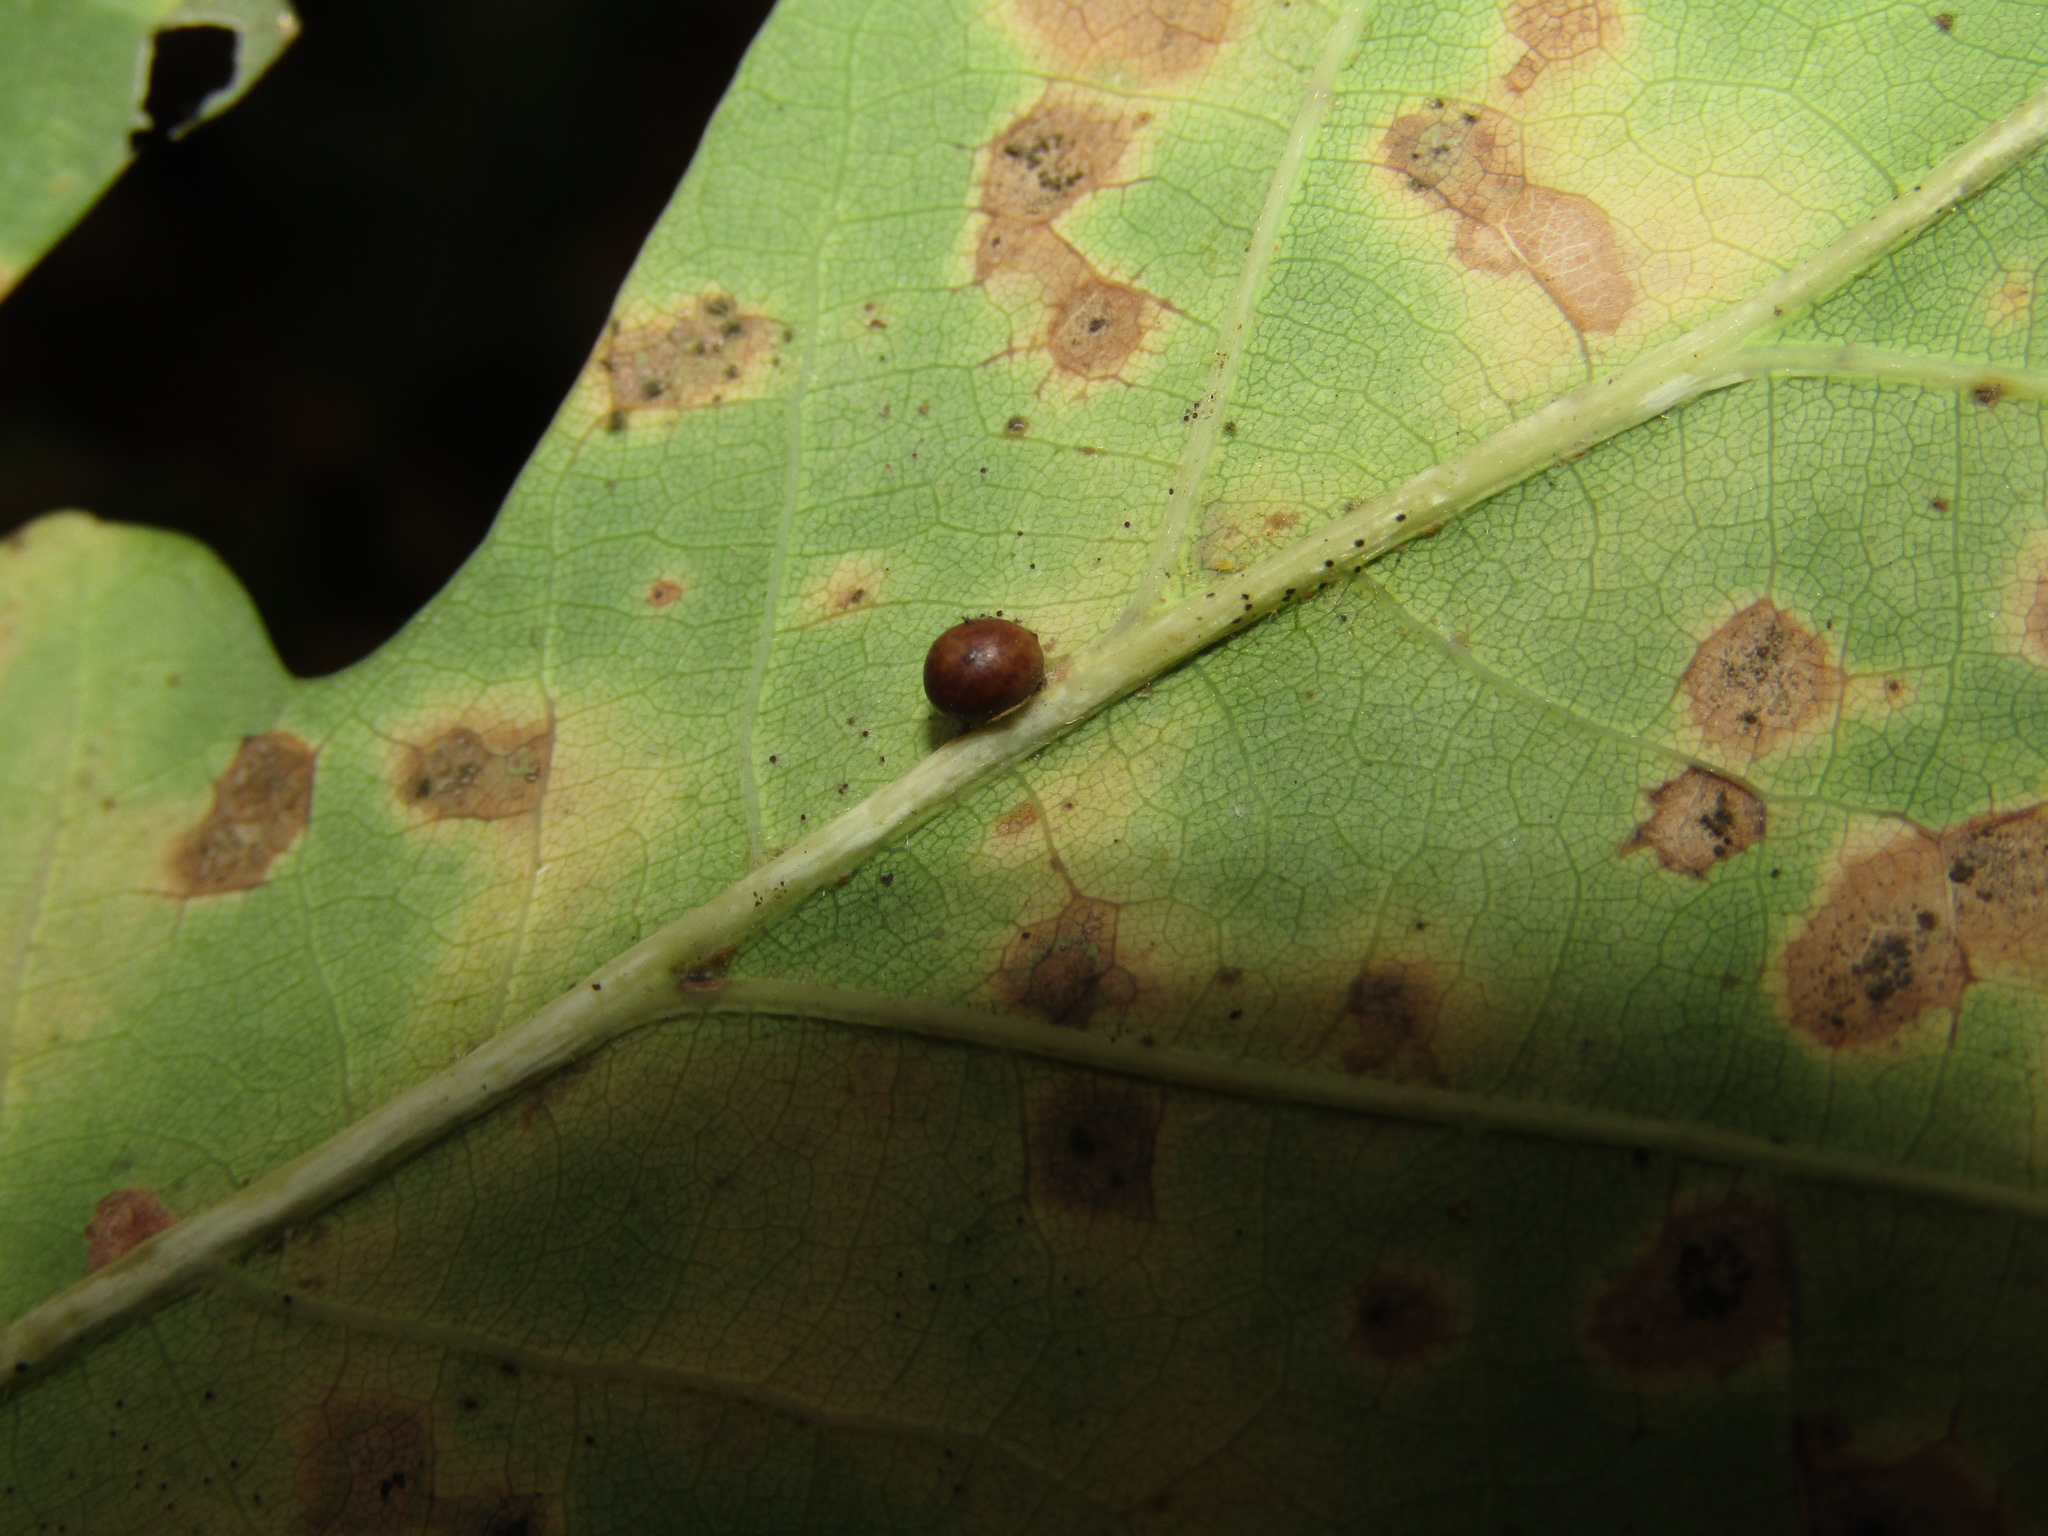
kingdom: Animalia
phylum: Arthropoda
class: Insecta
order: Hymenoptera
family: Cynipidae
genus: Neuroterus
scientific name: Neuroterus anthracinus
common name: Oyster gall
